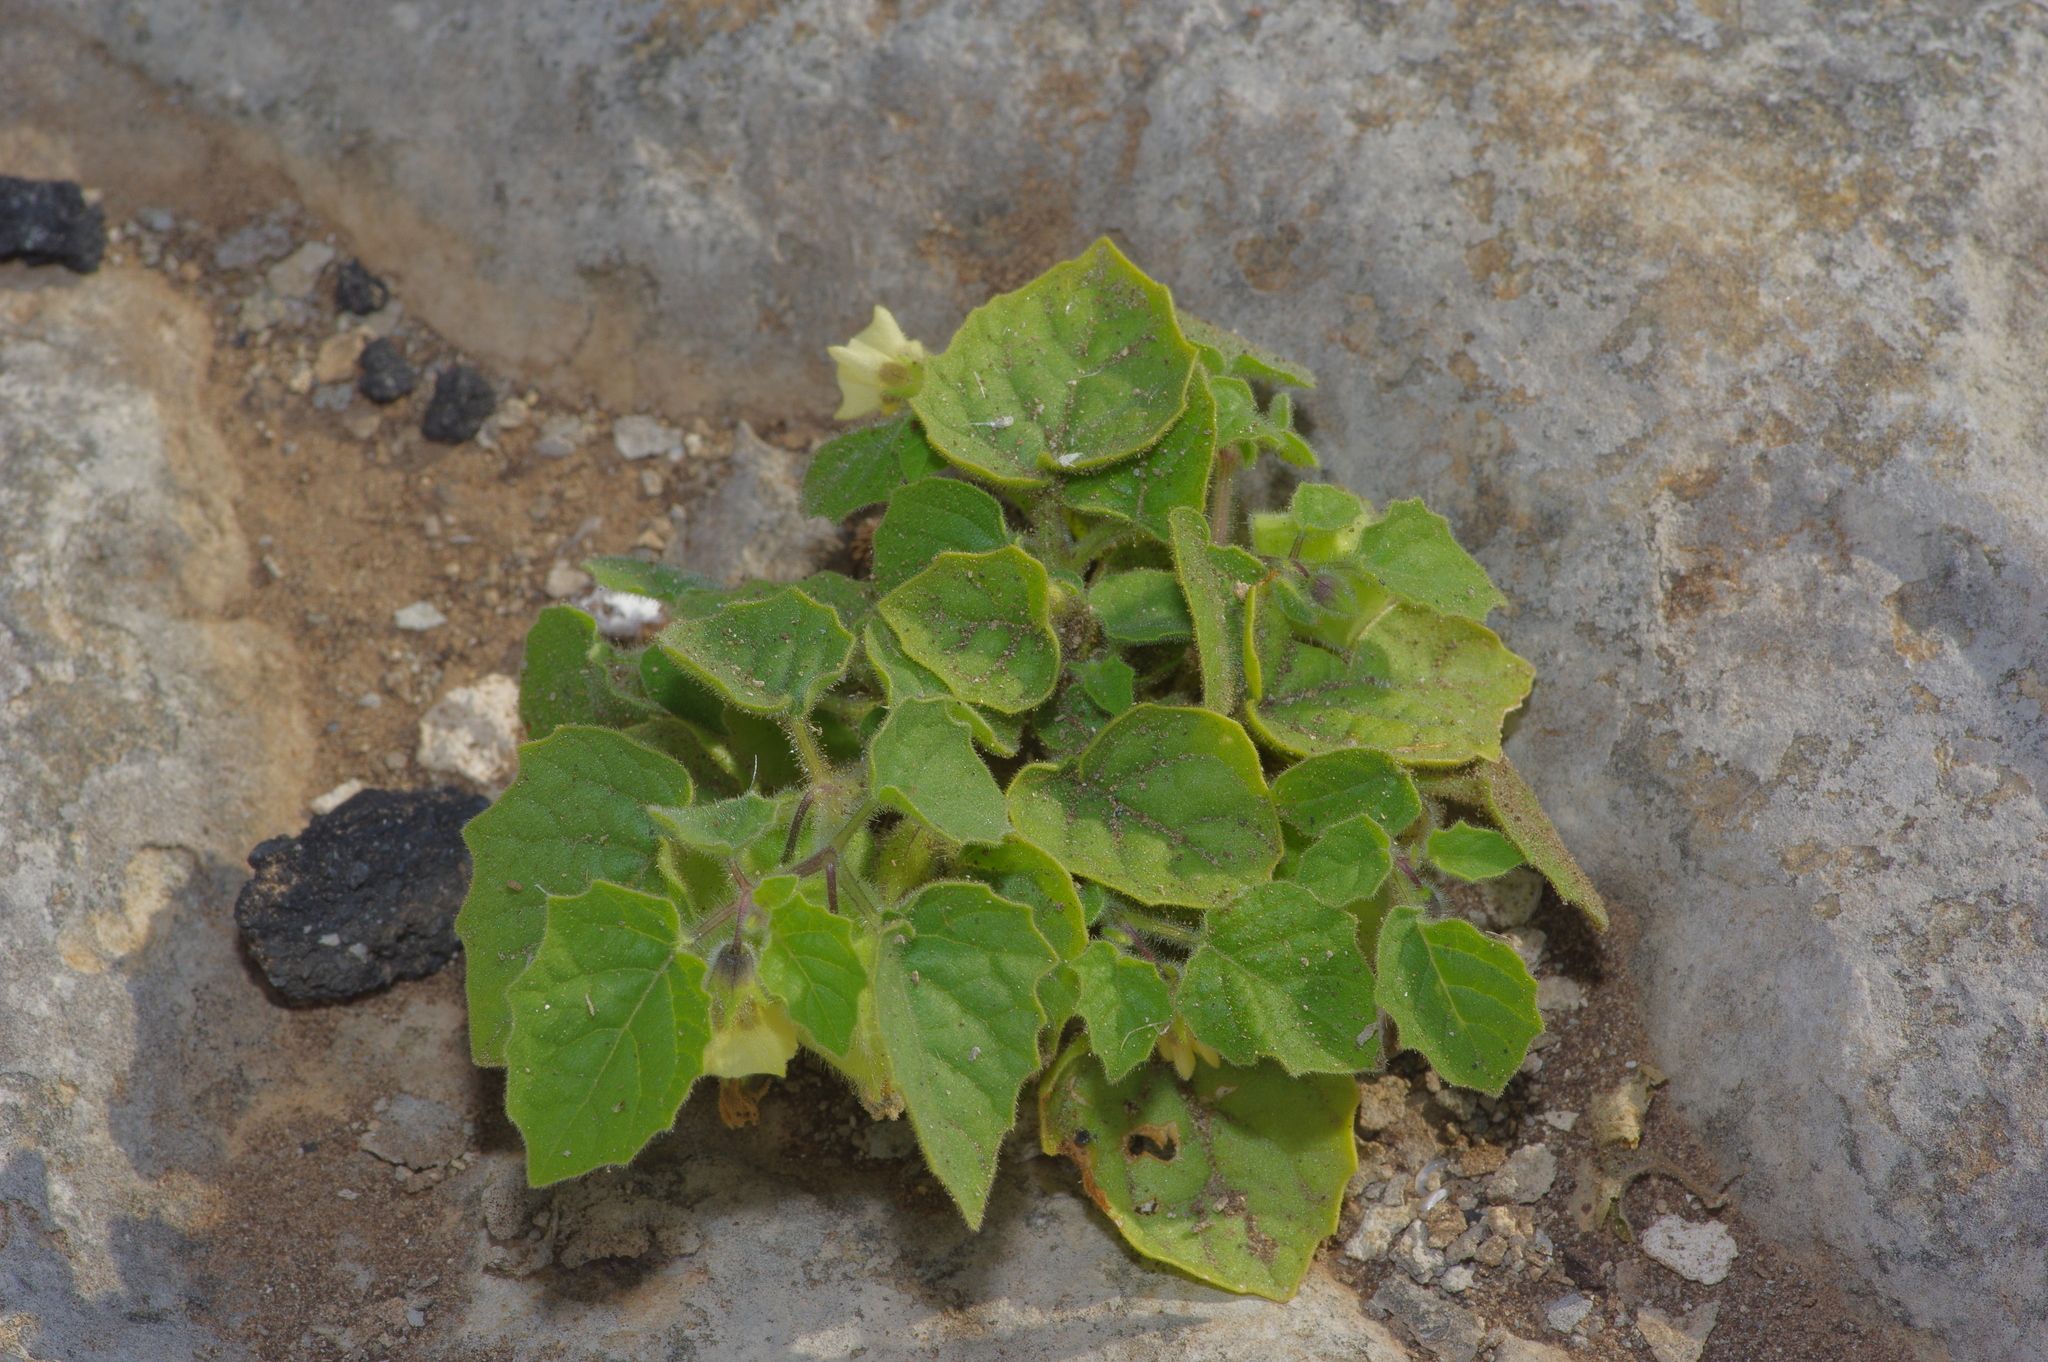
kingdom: Plantae
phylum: Tracheophyta
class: Magnoliopsida
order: Solanales
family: Solanaceae
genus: Physalis
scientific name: Physalis pubescens
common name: Downy ground-cherry
